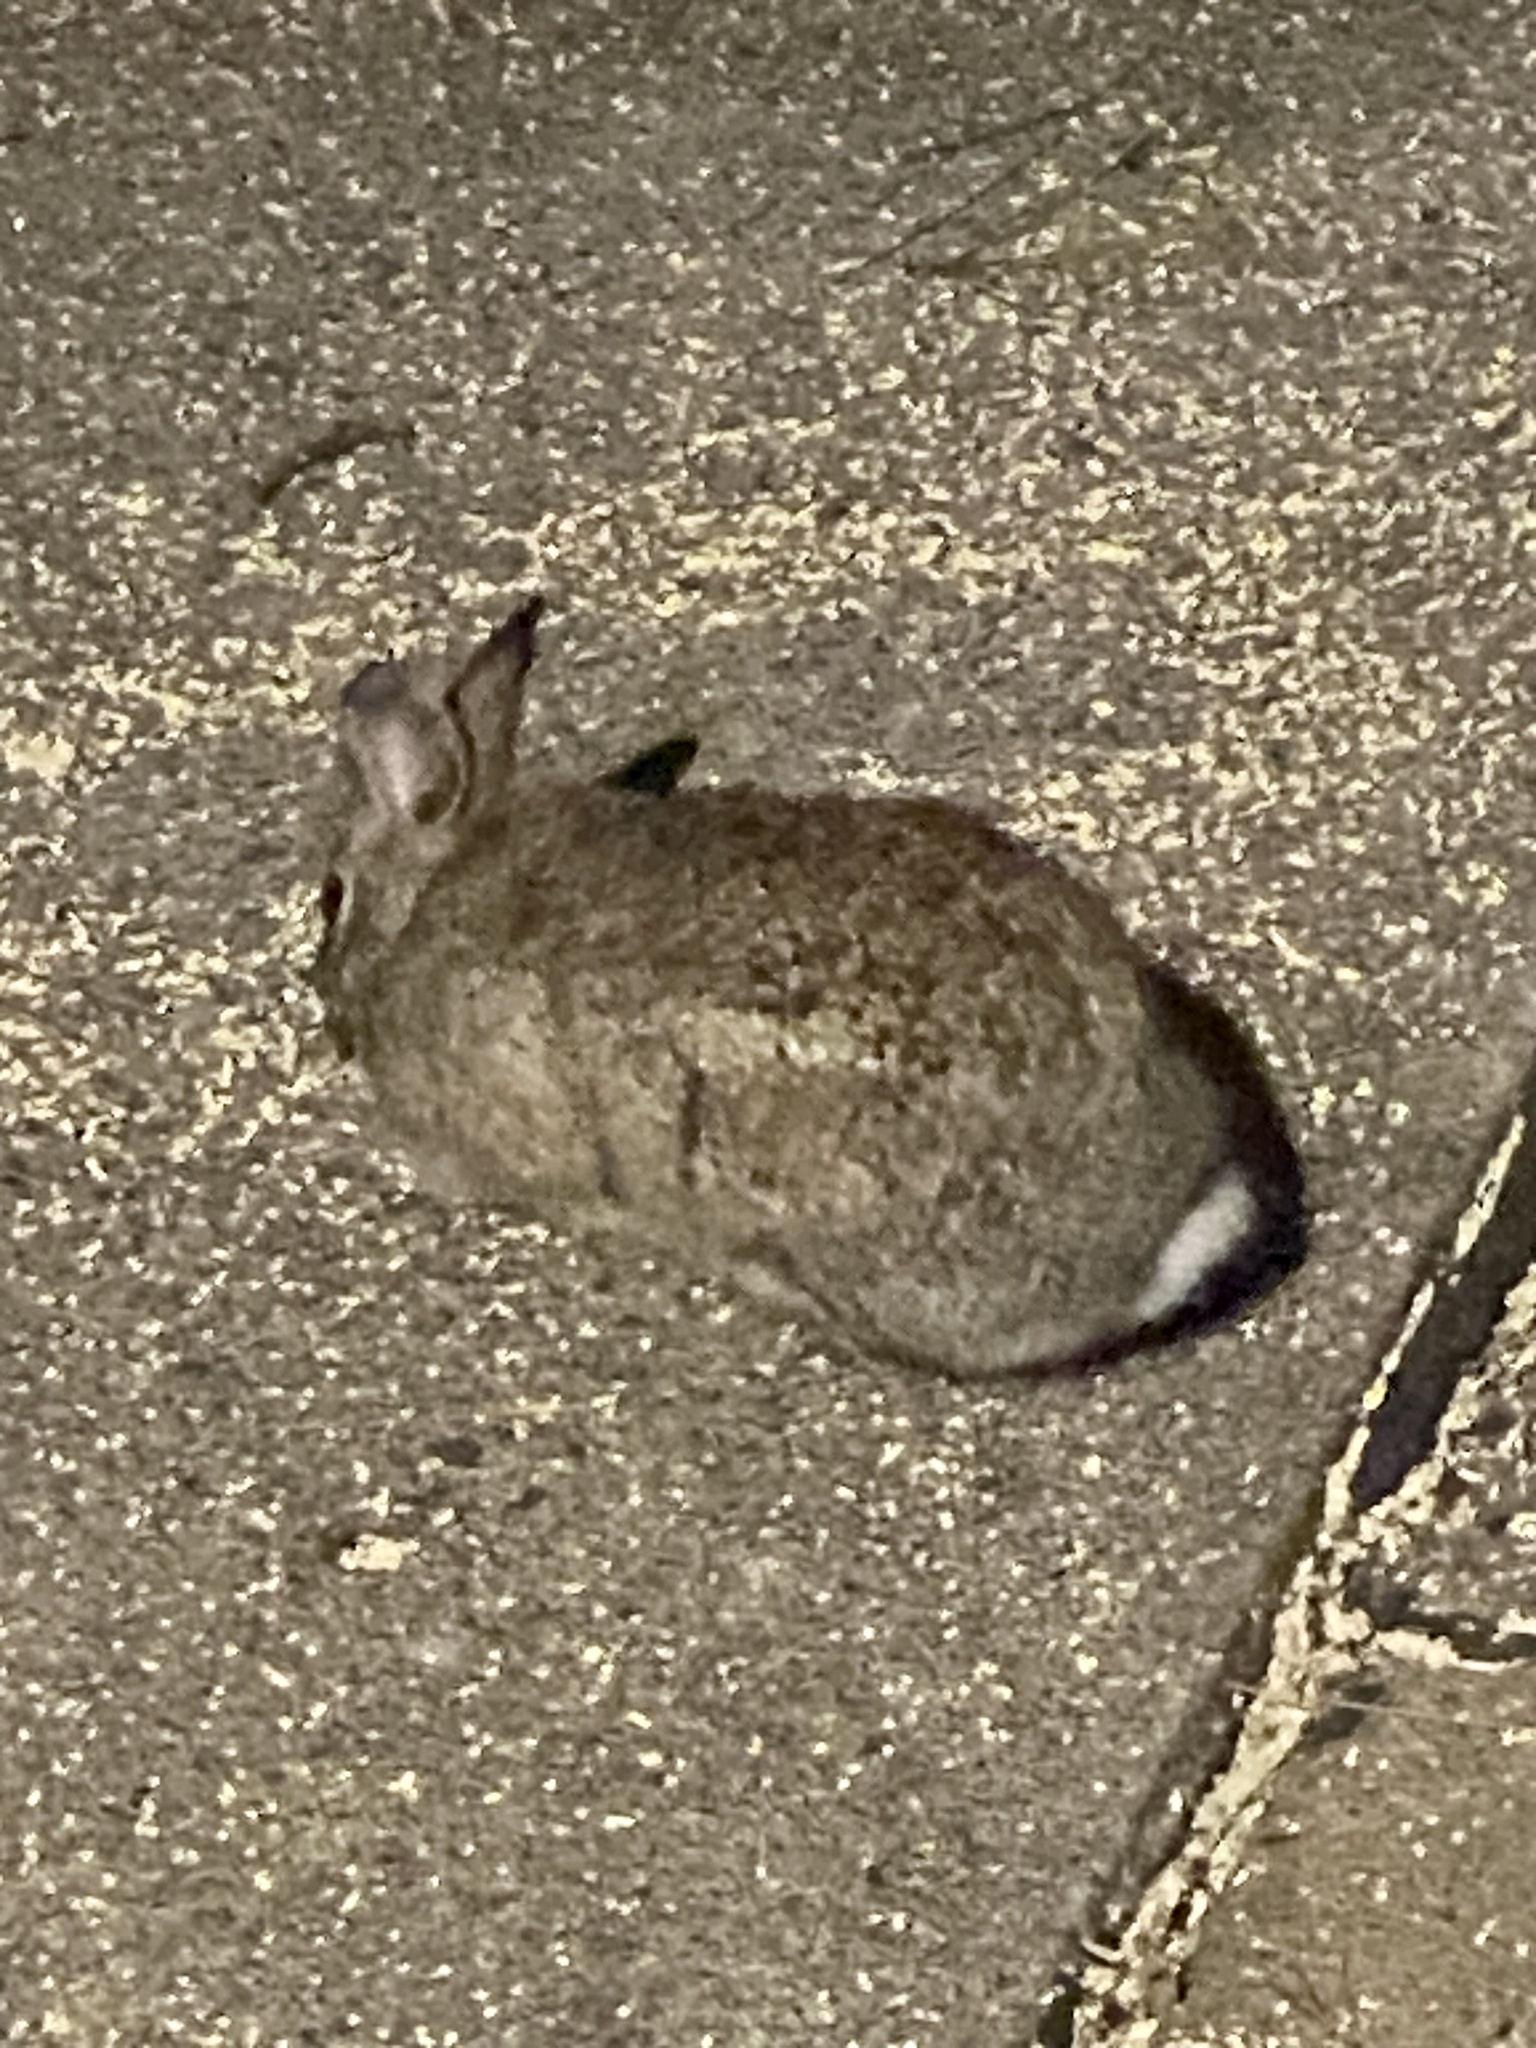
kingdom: Animalia
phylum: Chordata
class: Mammalia
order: Lagomorpha
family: Leporidae
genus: Sylvilagus
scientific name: Sylvilagus floridanus
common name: Eastern cottontail
